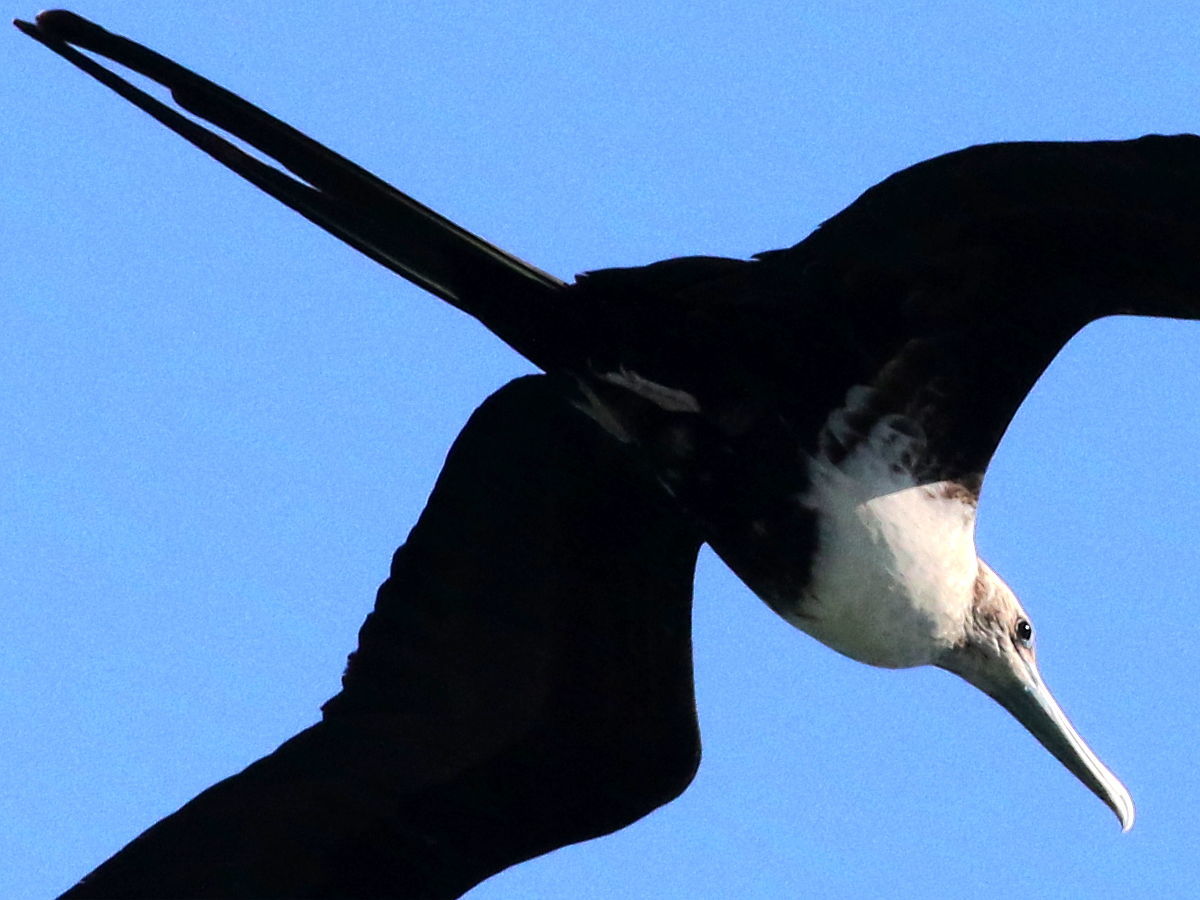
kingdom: Animalia
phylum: Chordata
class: Aves
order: Suliformes
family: Fregatidae
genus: Fregata
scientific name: Fregata magnificens
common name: Magnificent frigatebird
